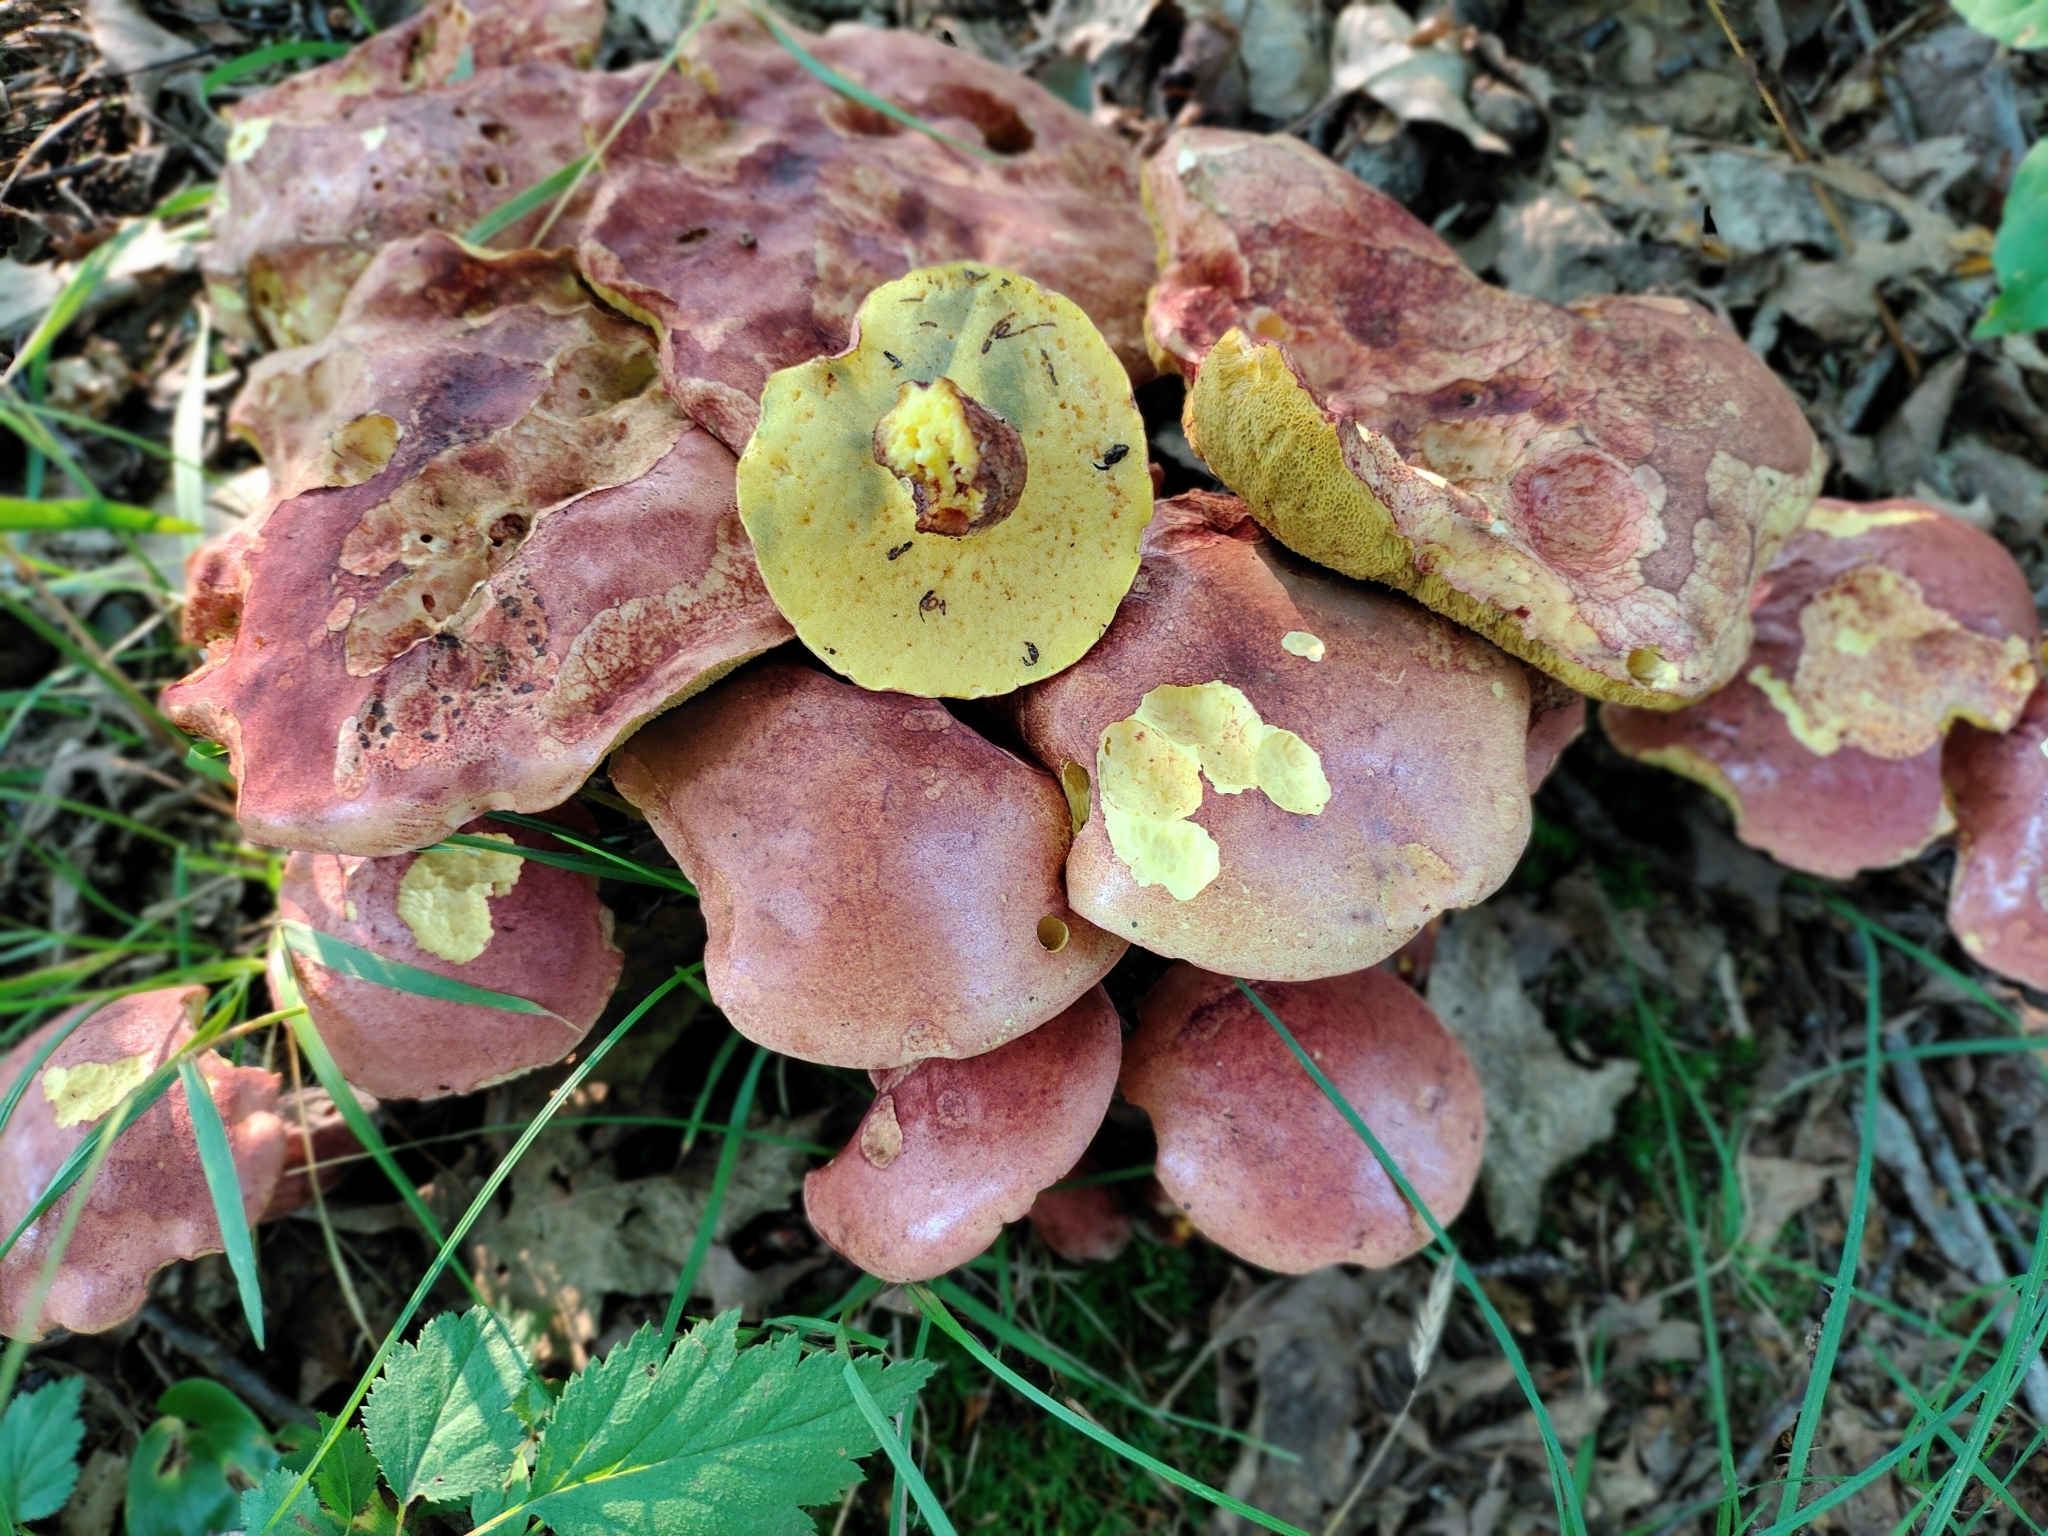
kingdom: Fungi
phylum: Basidiomycota
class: Agaricomycetes
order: Boletales
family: Boletaceae
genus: Lanmaoa
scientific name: Lanmaoa pallidorosea
